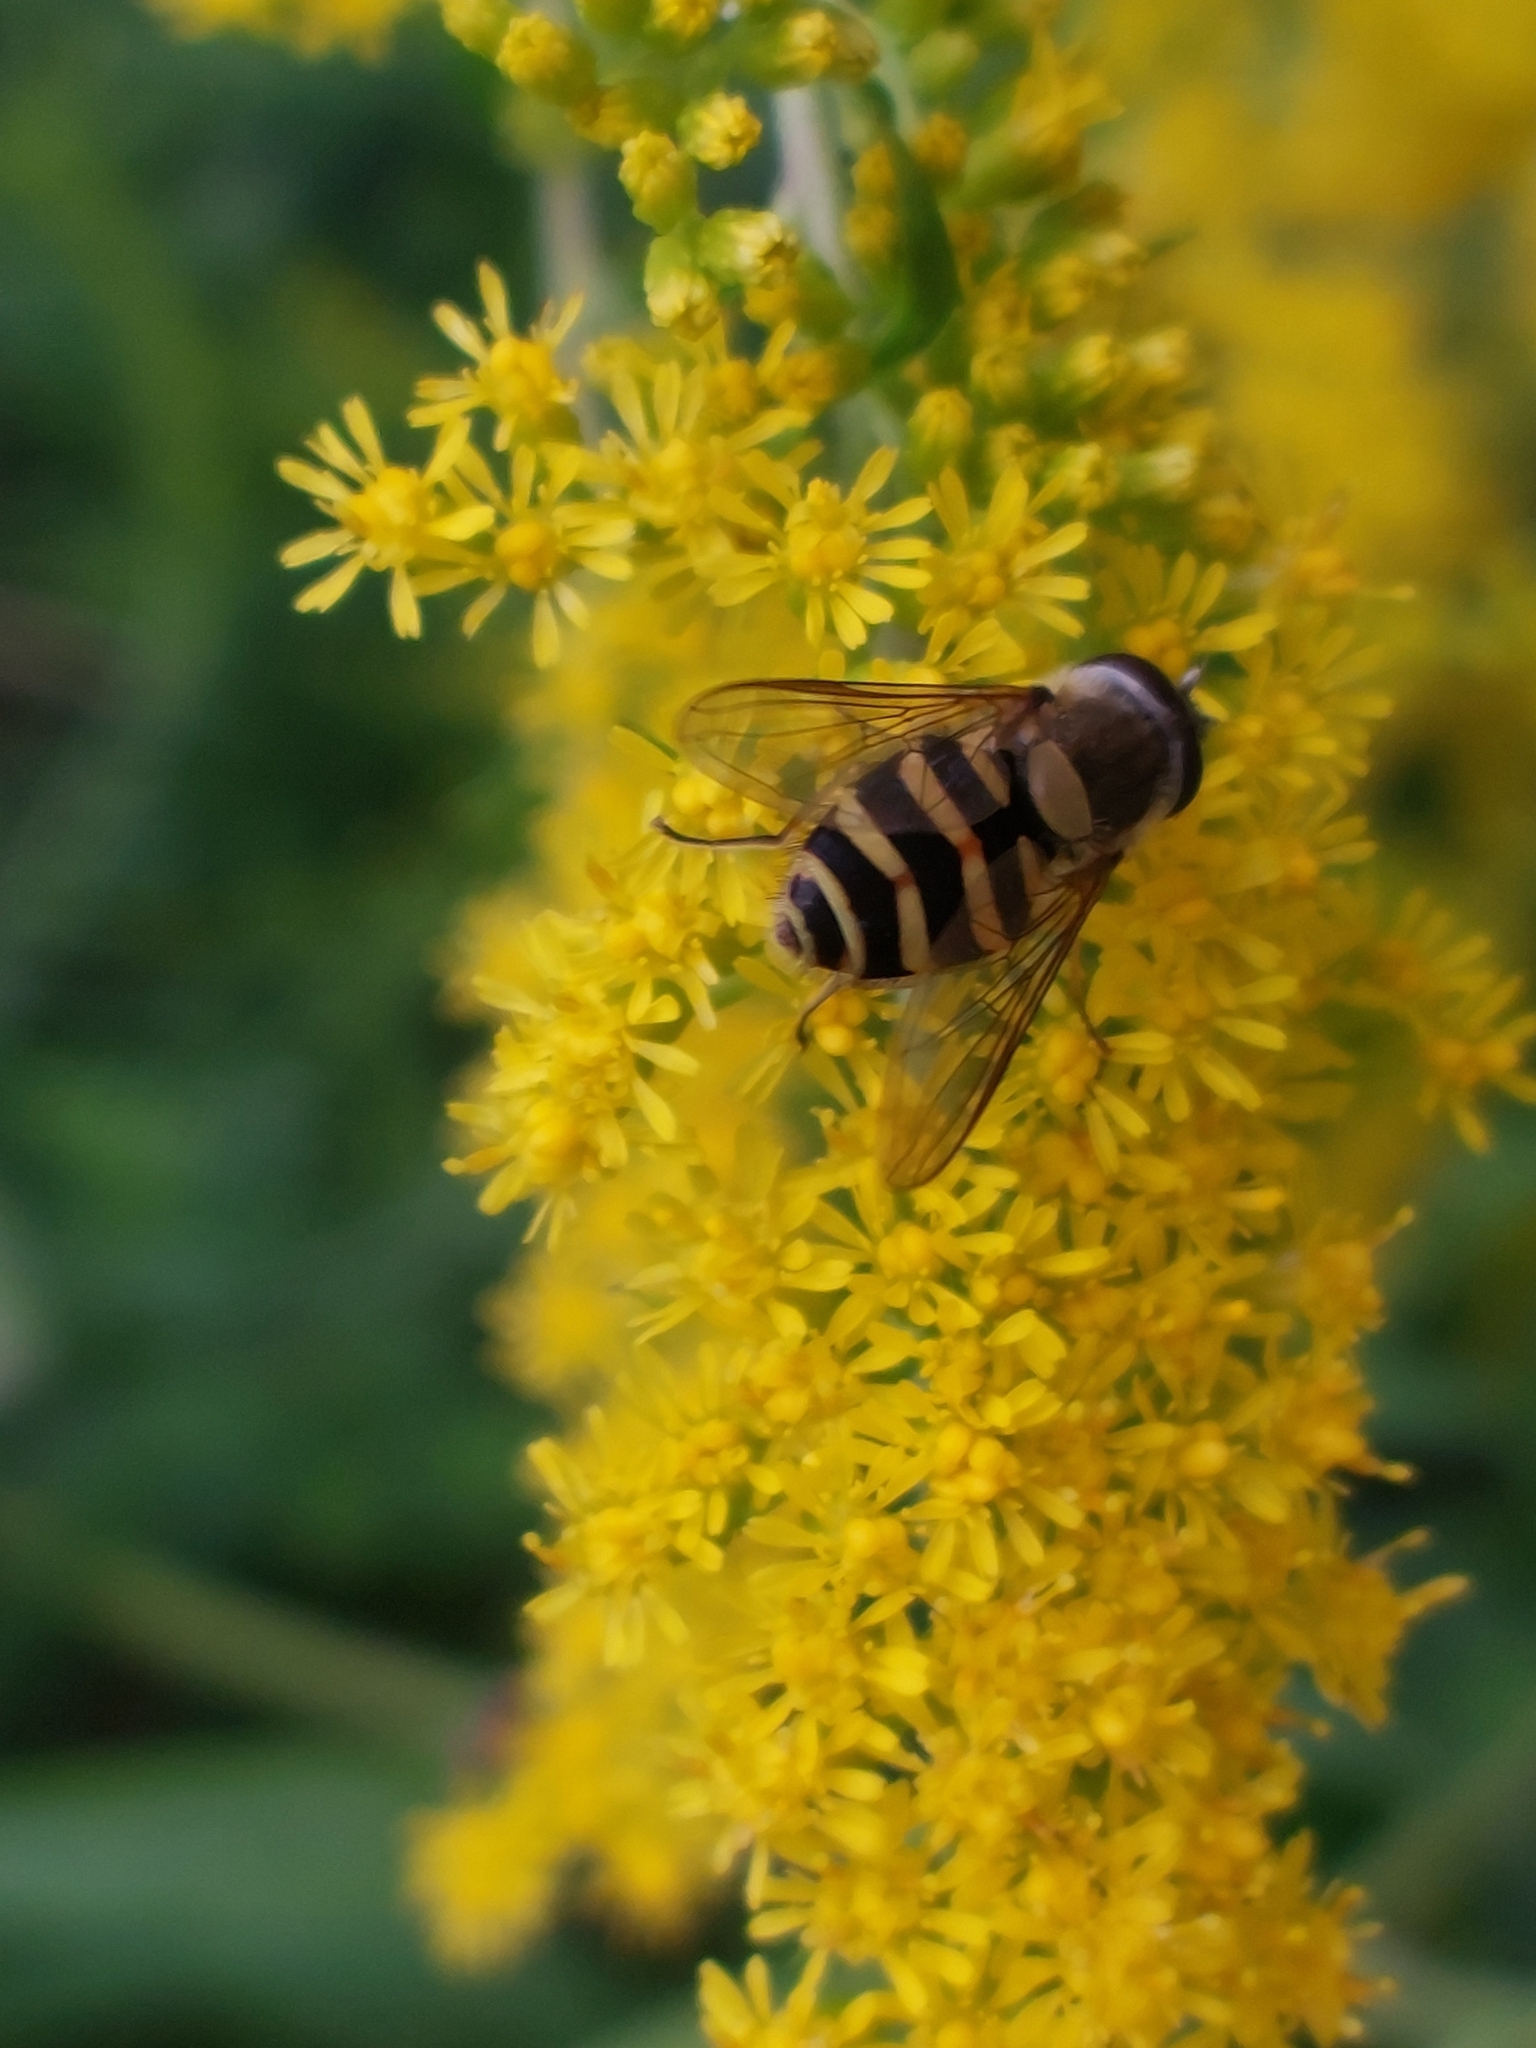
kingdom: Animalia
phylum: Arthropoda
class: Insecta
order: Diptera
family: Syrphidae
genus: Syrphus
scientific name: Syrphus
